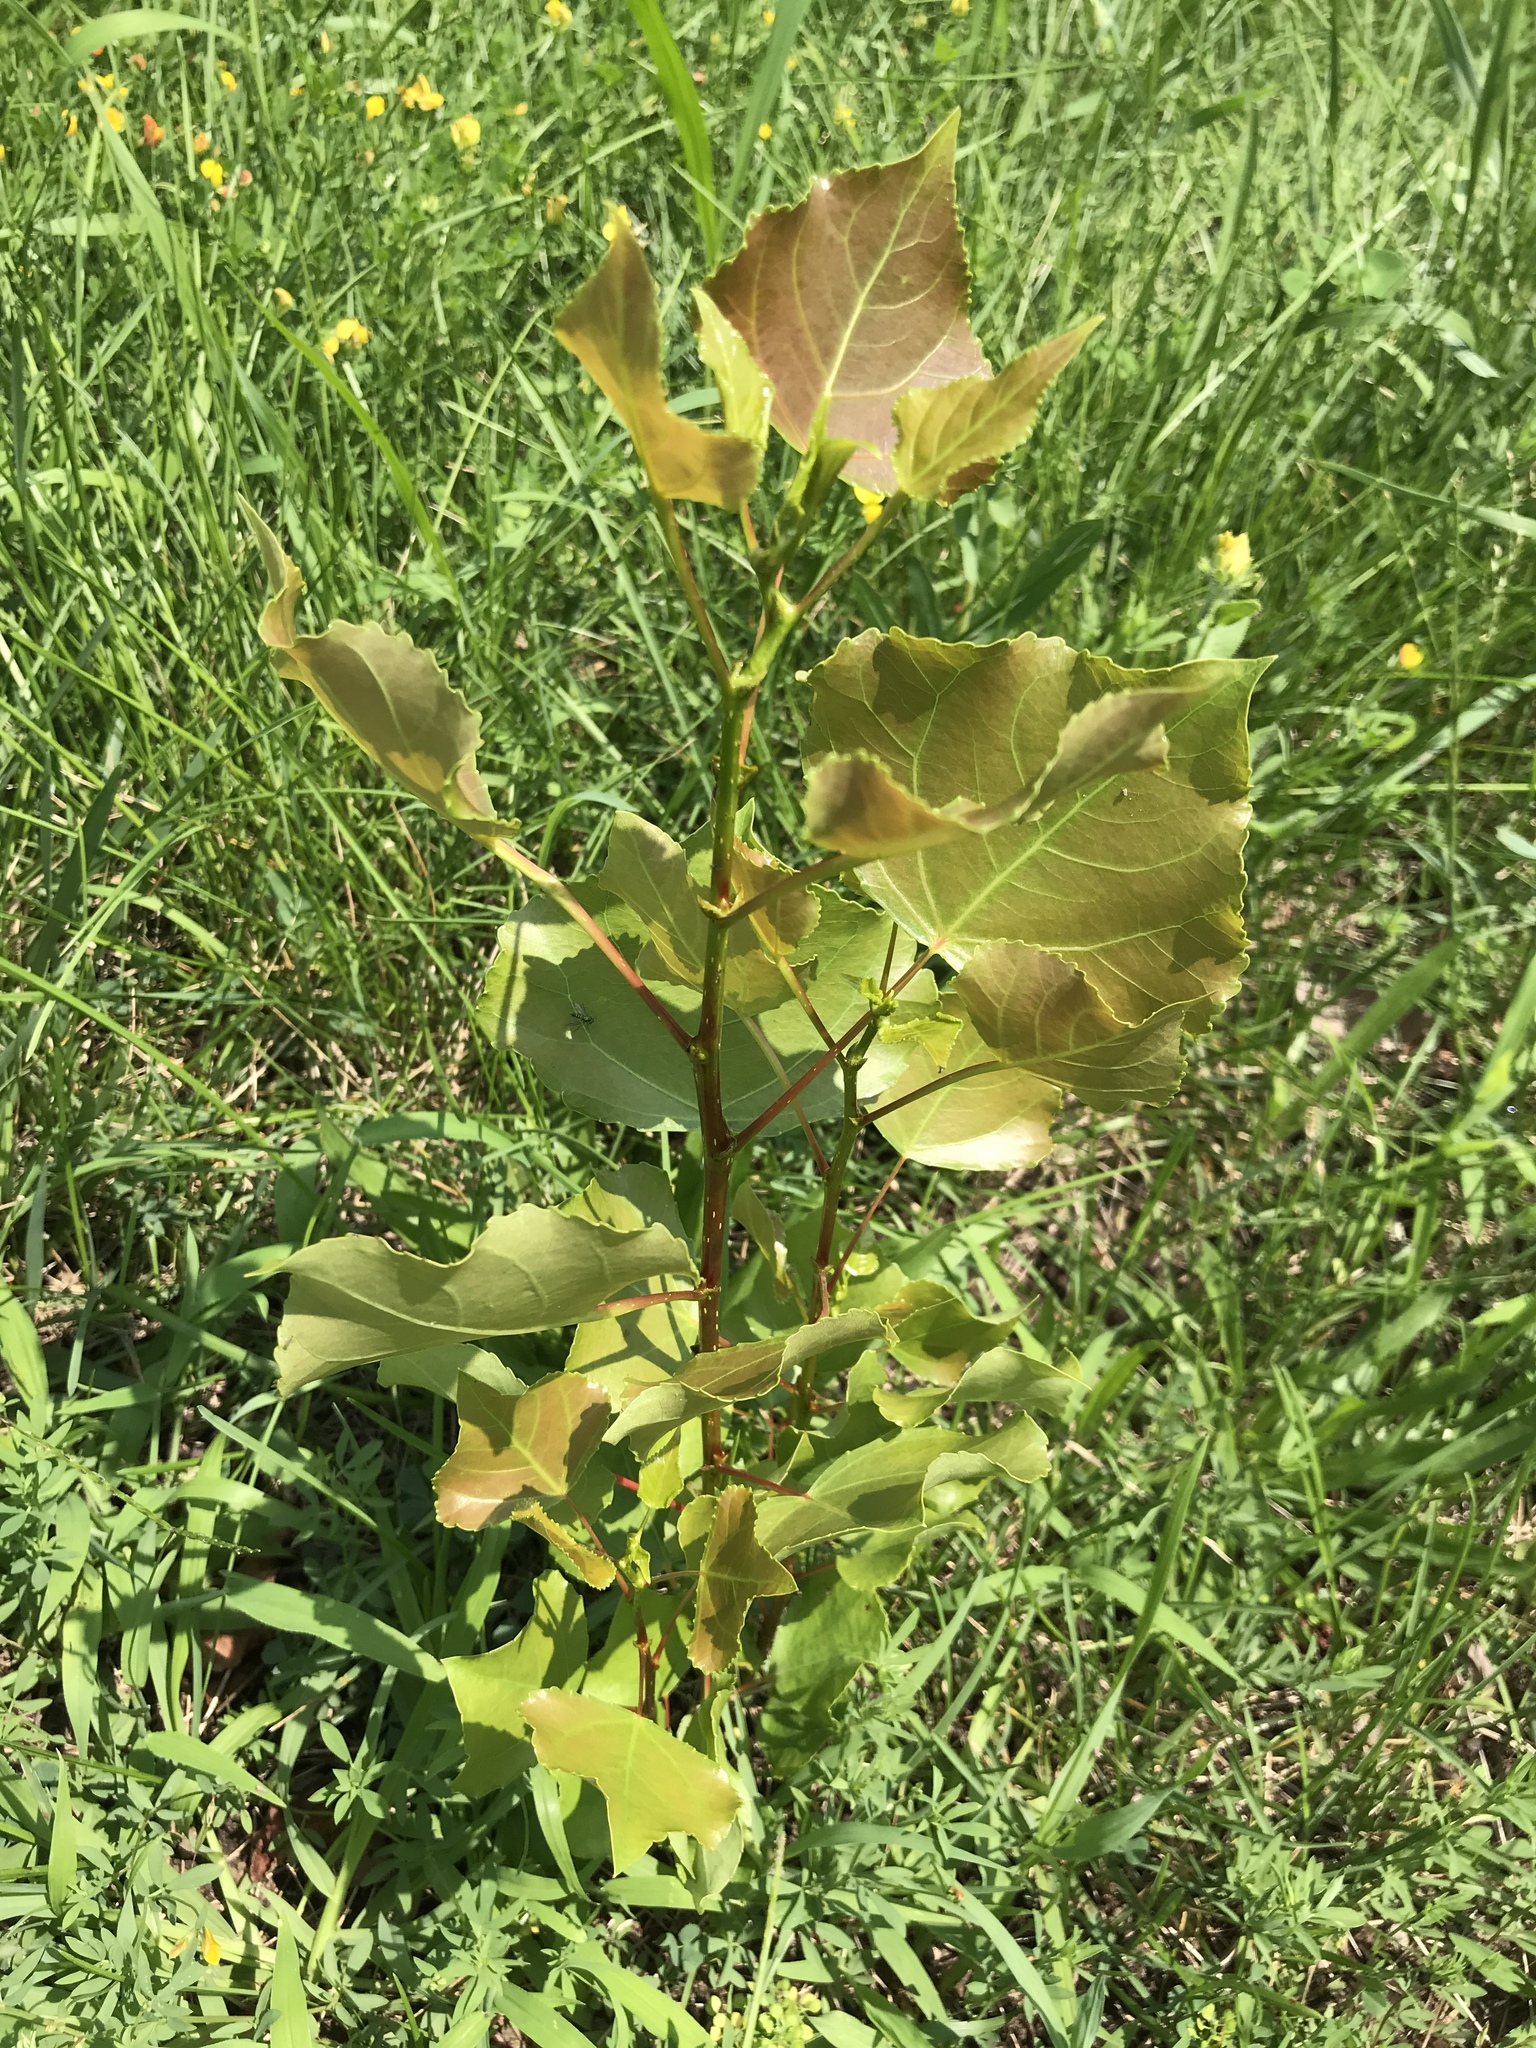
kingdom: Plantae
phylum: Tracheophyta
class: Magnoliopsida
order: Malpighiales
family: Salicaceae
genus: Populus
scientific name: Populus deltoides
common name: Eastern cottonwood
